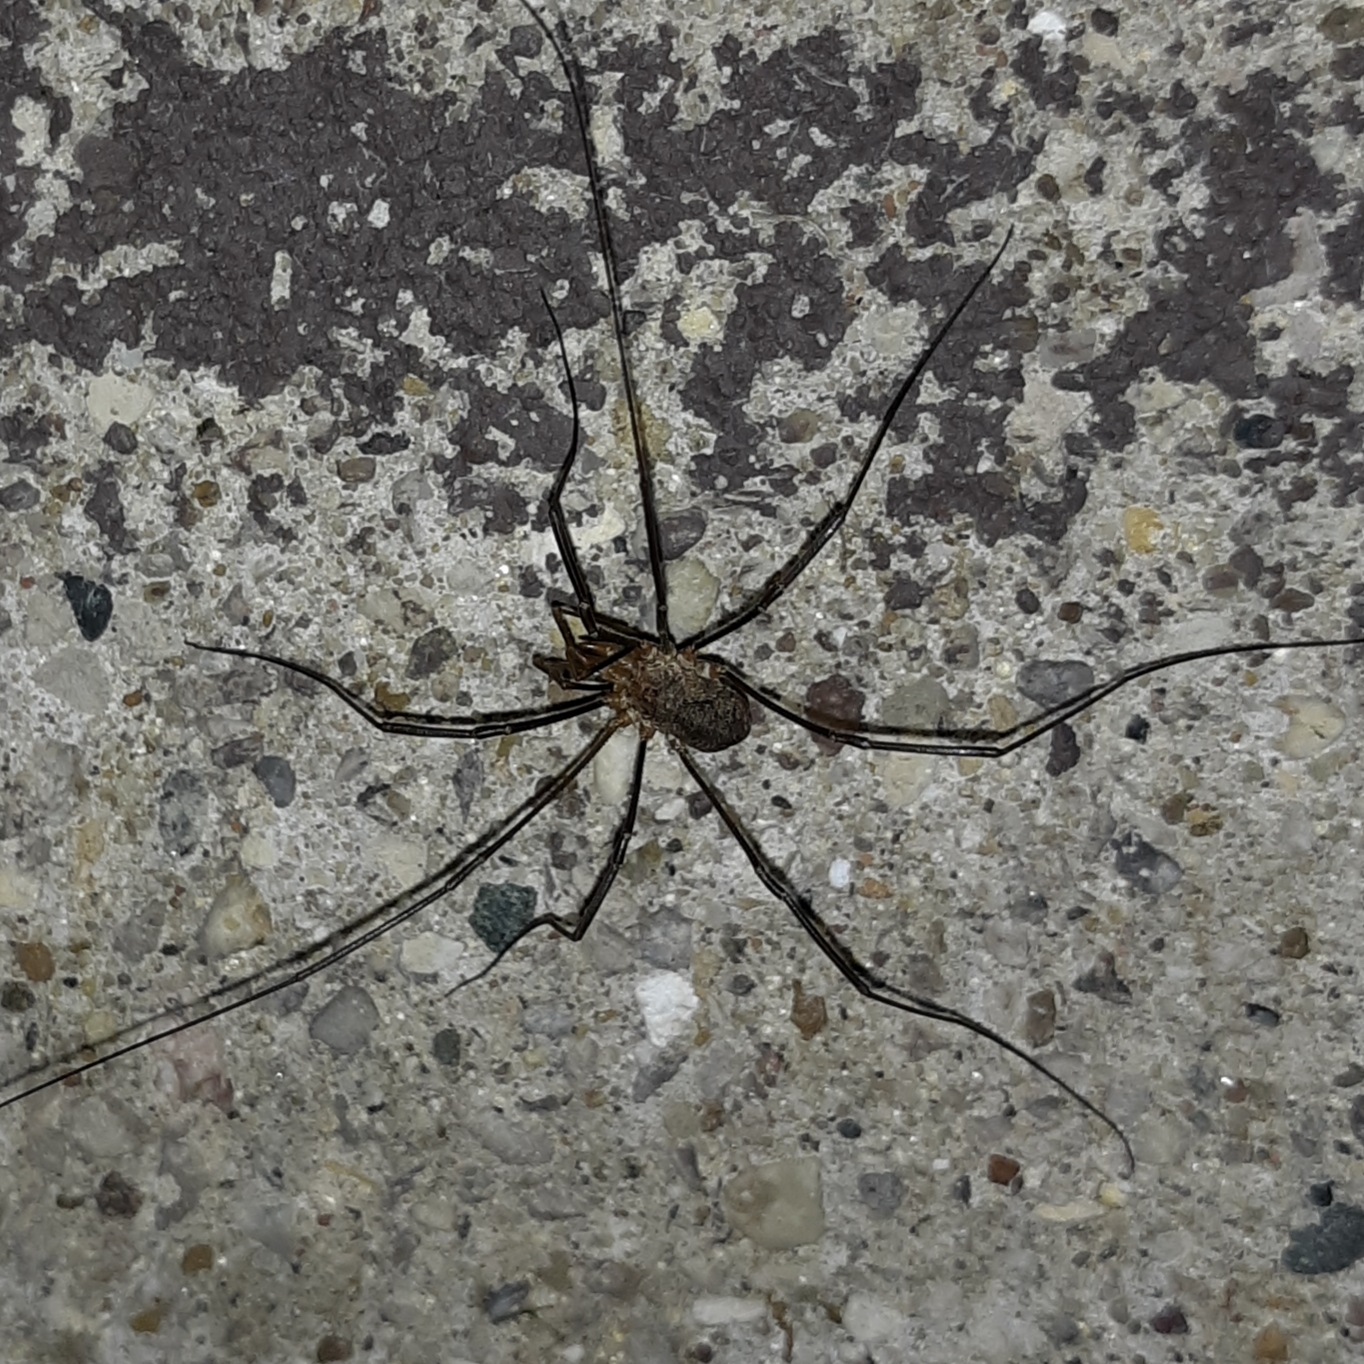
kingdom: Animalia
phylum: Arthropoda
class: Arachnida
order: Opiliones
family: Phalangiidae
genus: Phalangium
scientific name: Phalangium opilio
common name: Daddy longleg
